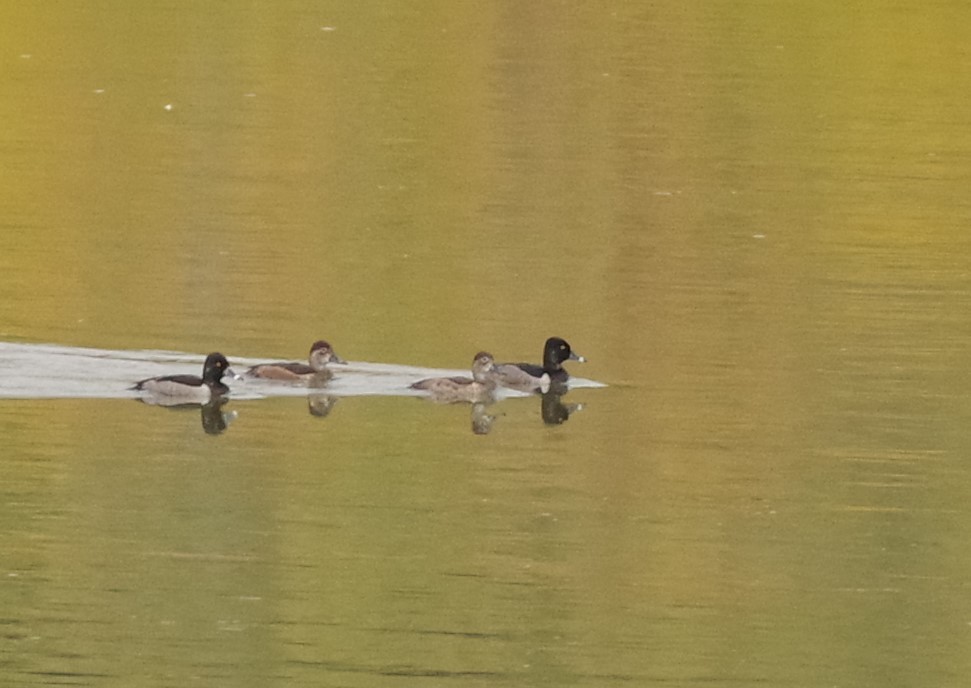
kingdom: Animalia
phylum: Chordata
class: Aves
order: Anseriformes
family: Anatidae
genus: Aythya
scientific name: Aythya collaris
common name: Ring-necked duck
